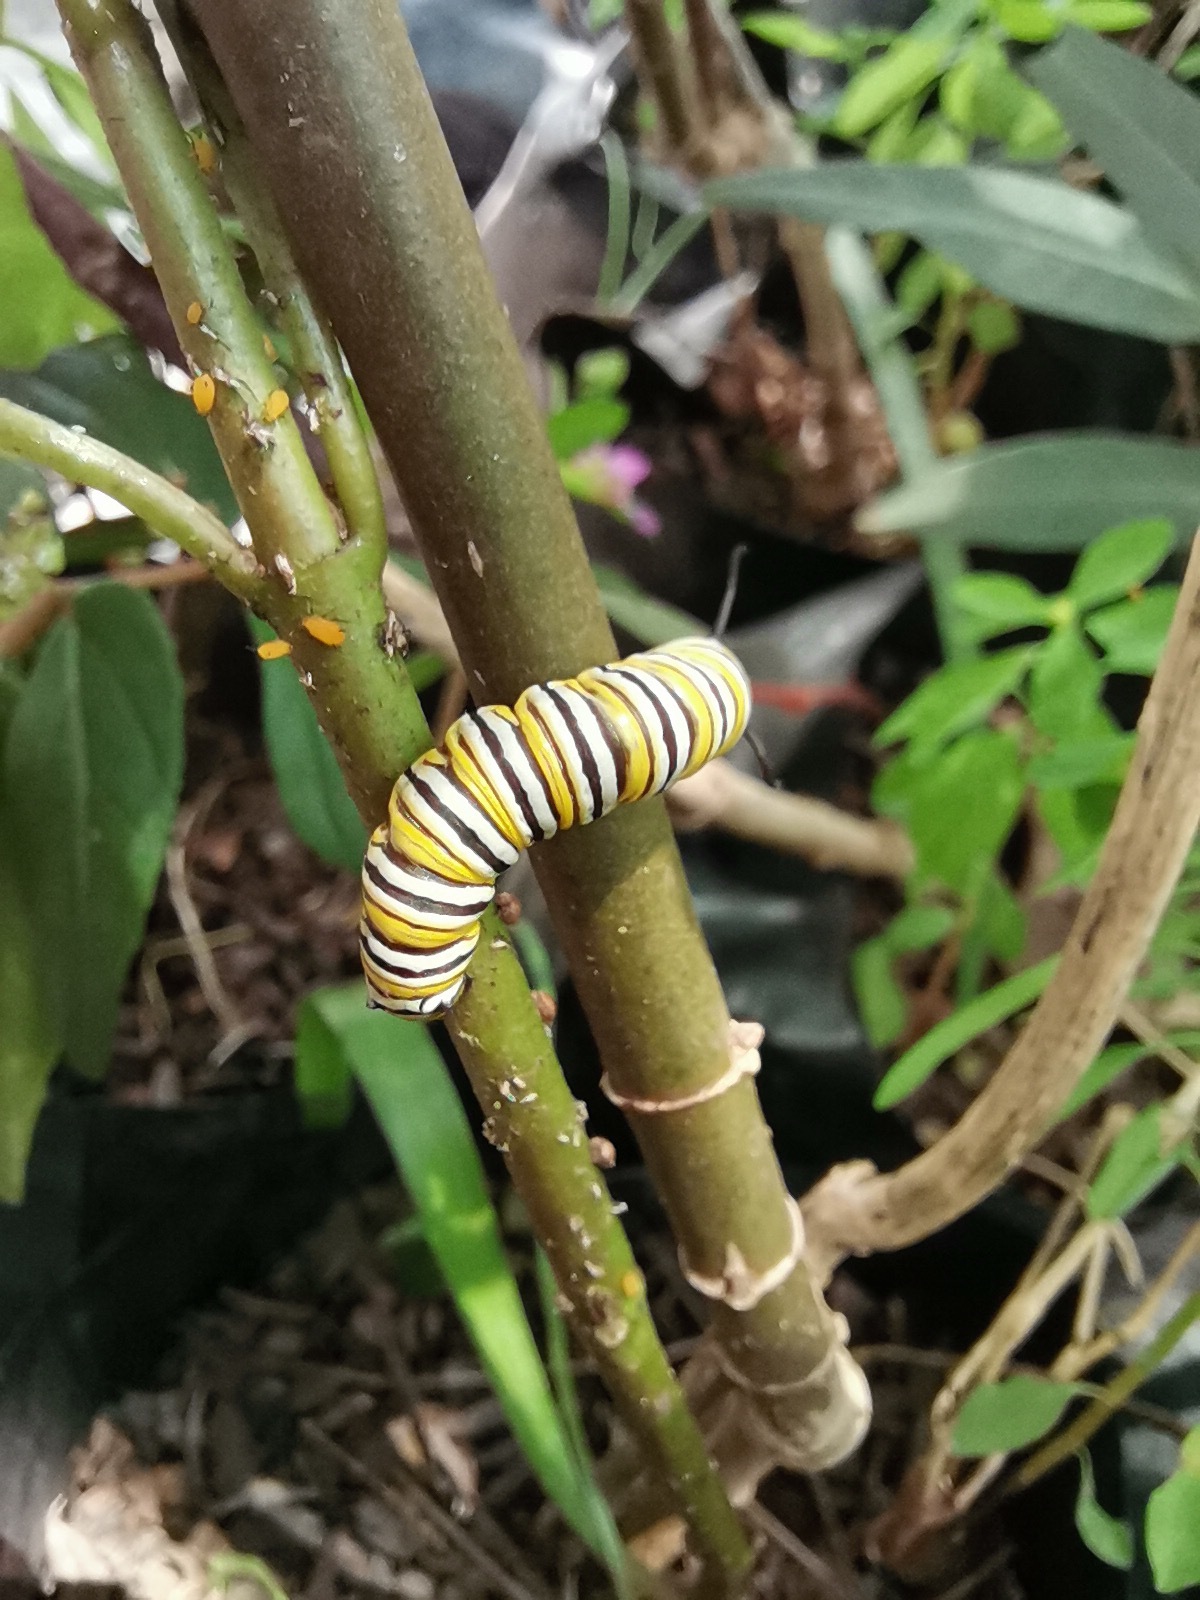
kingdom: Animalia
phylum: Arthropoda
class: Insecta
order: Lepidoptera
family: Nymphalidae
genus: Danaus
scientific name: Danaus plexippus
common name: Monarch
